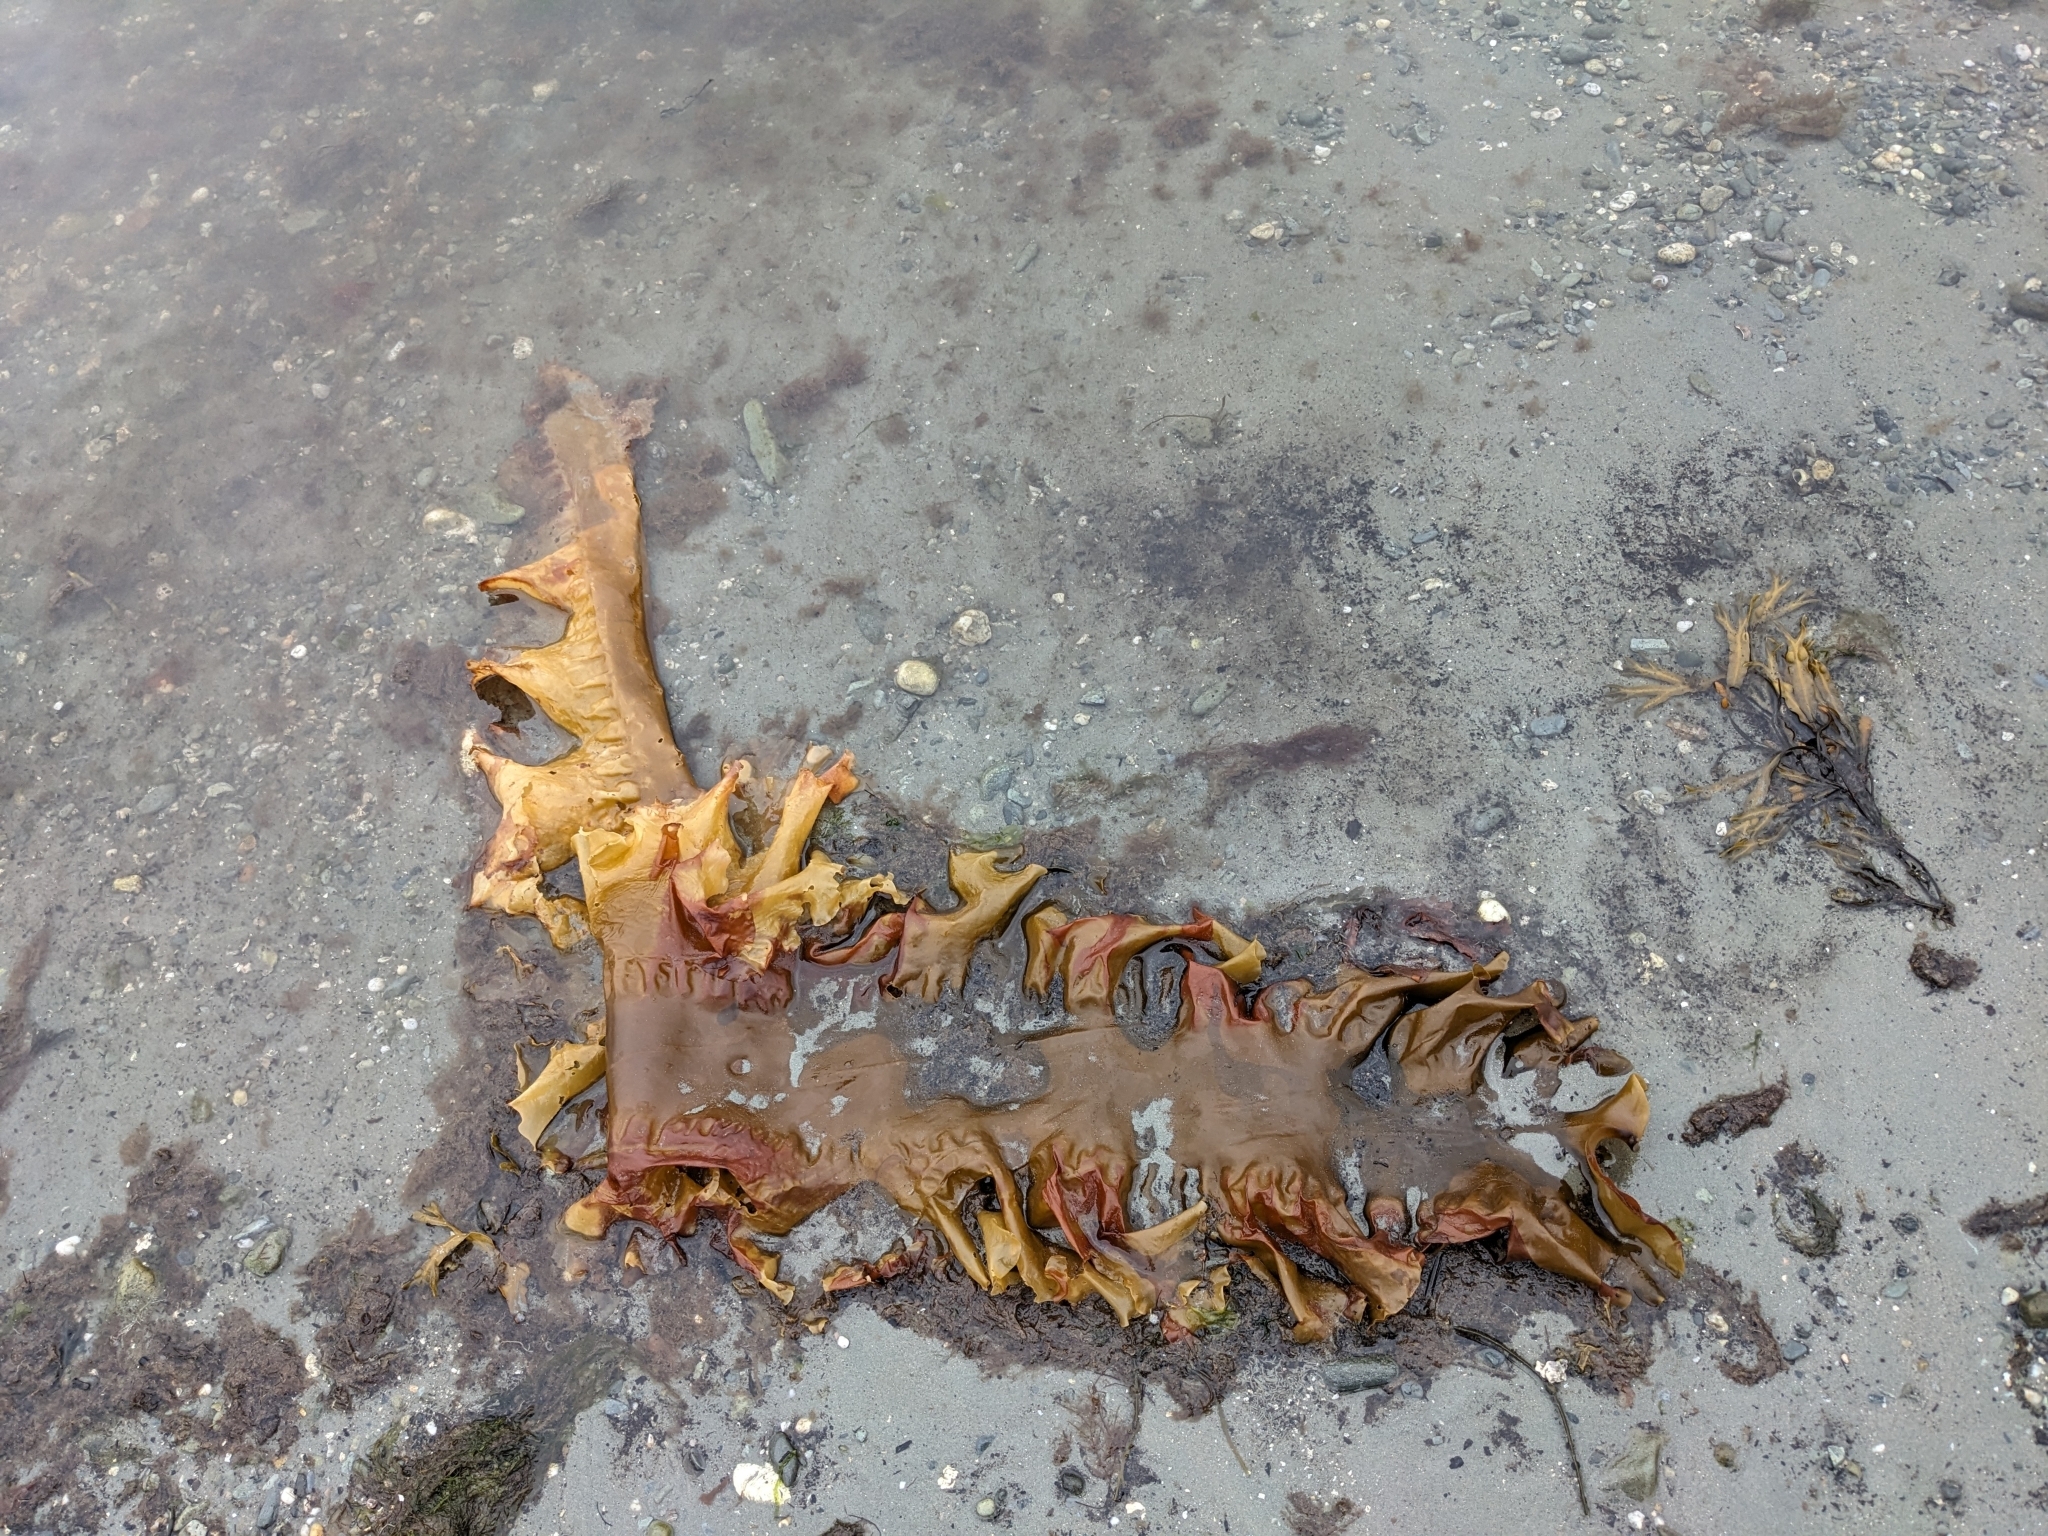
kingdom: Chromista
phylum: Ochrophyta
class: Phaeophyceae
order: Laminariales
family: Laminariaceae
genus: Saccharina
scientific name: Saccharina latissima
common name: Poor man's weather glass
